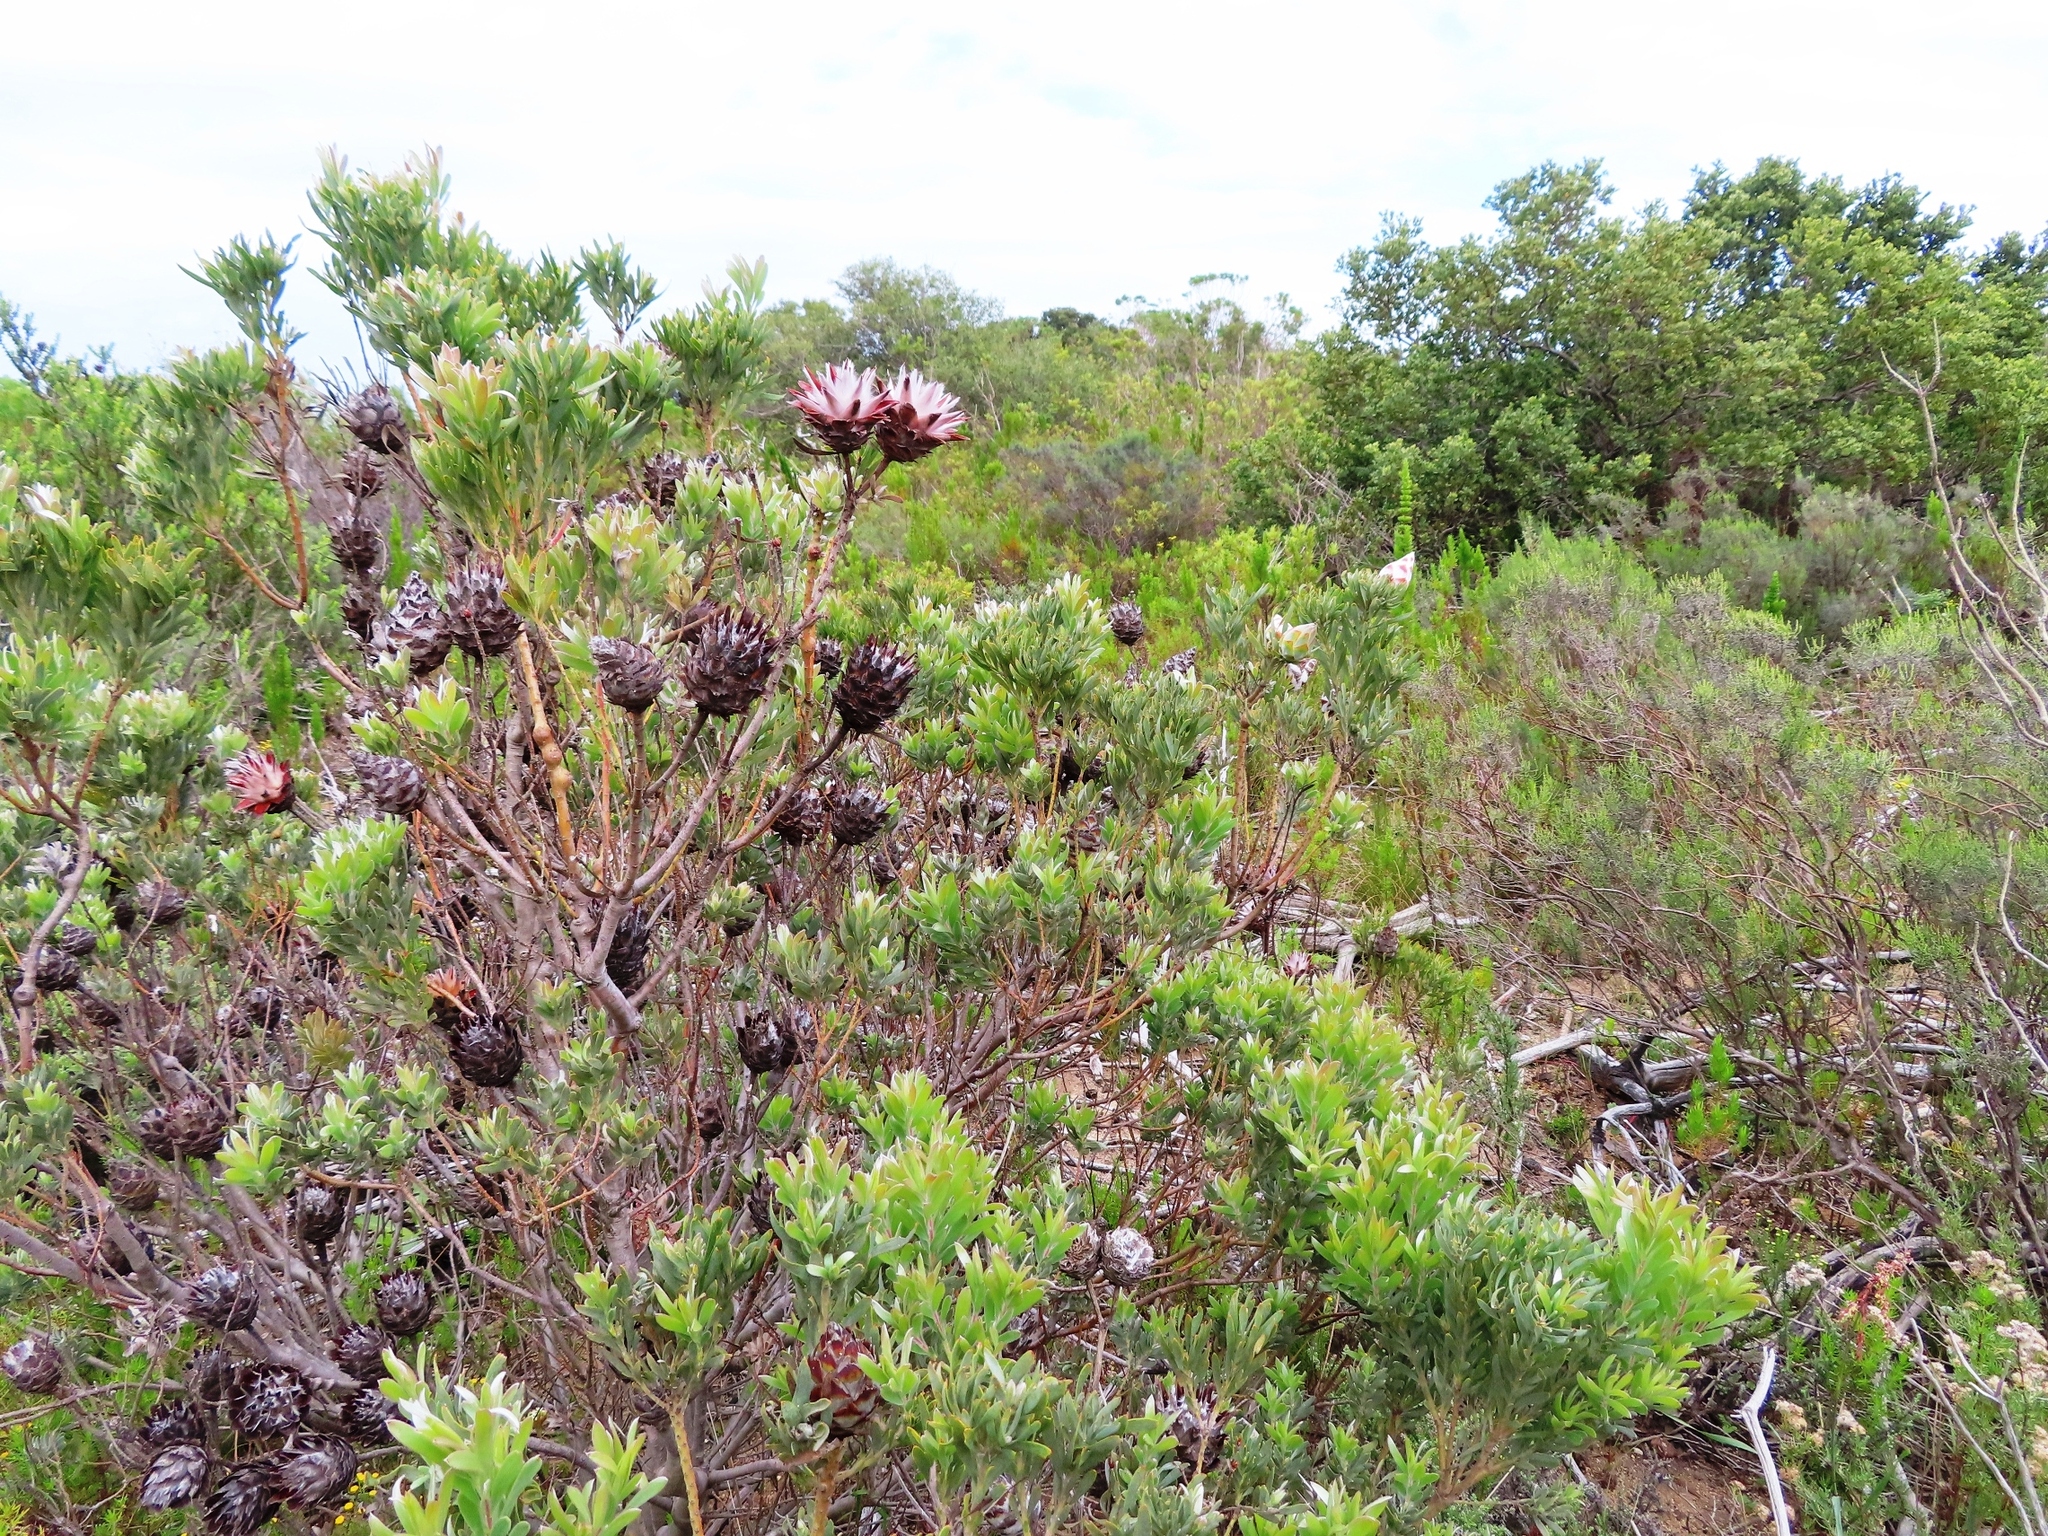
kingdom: Plantae
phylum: Tracheophyta
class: Magnoliopsida
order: Proteales
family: Proteaceae
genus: Leucadendron
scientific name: Leucadendron rubrum
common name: Spinning top
